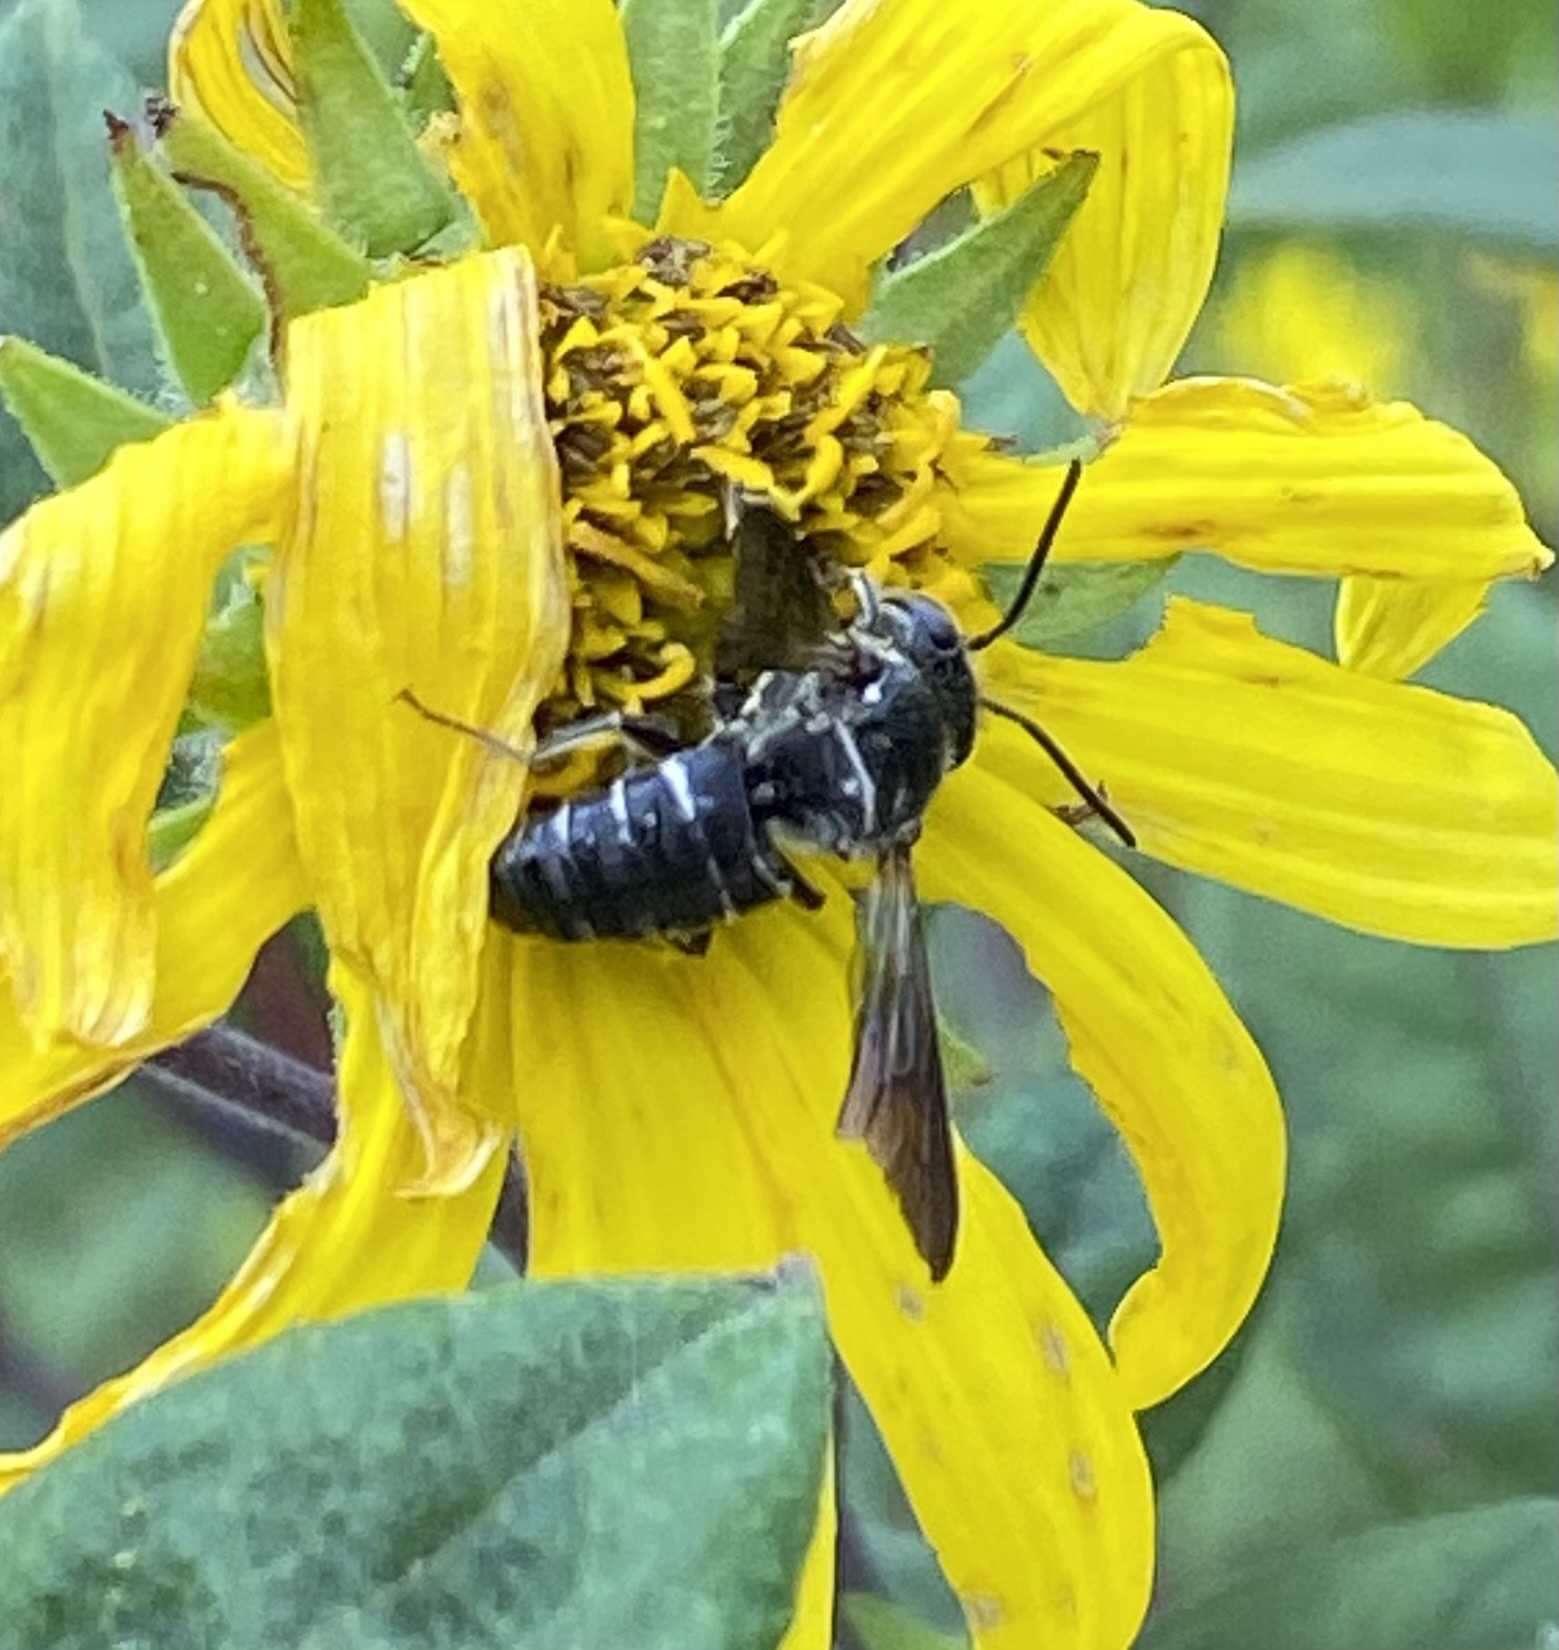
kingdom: Animalia
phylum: Arthropoda
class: Insecta
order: Hymenoptera
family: Megachilidae
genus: Coelioxys
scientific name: Coelioxys dolichos
